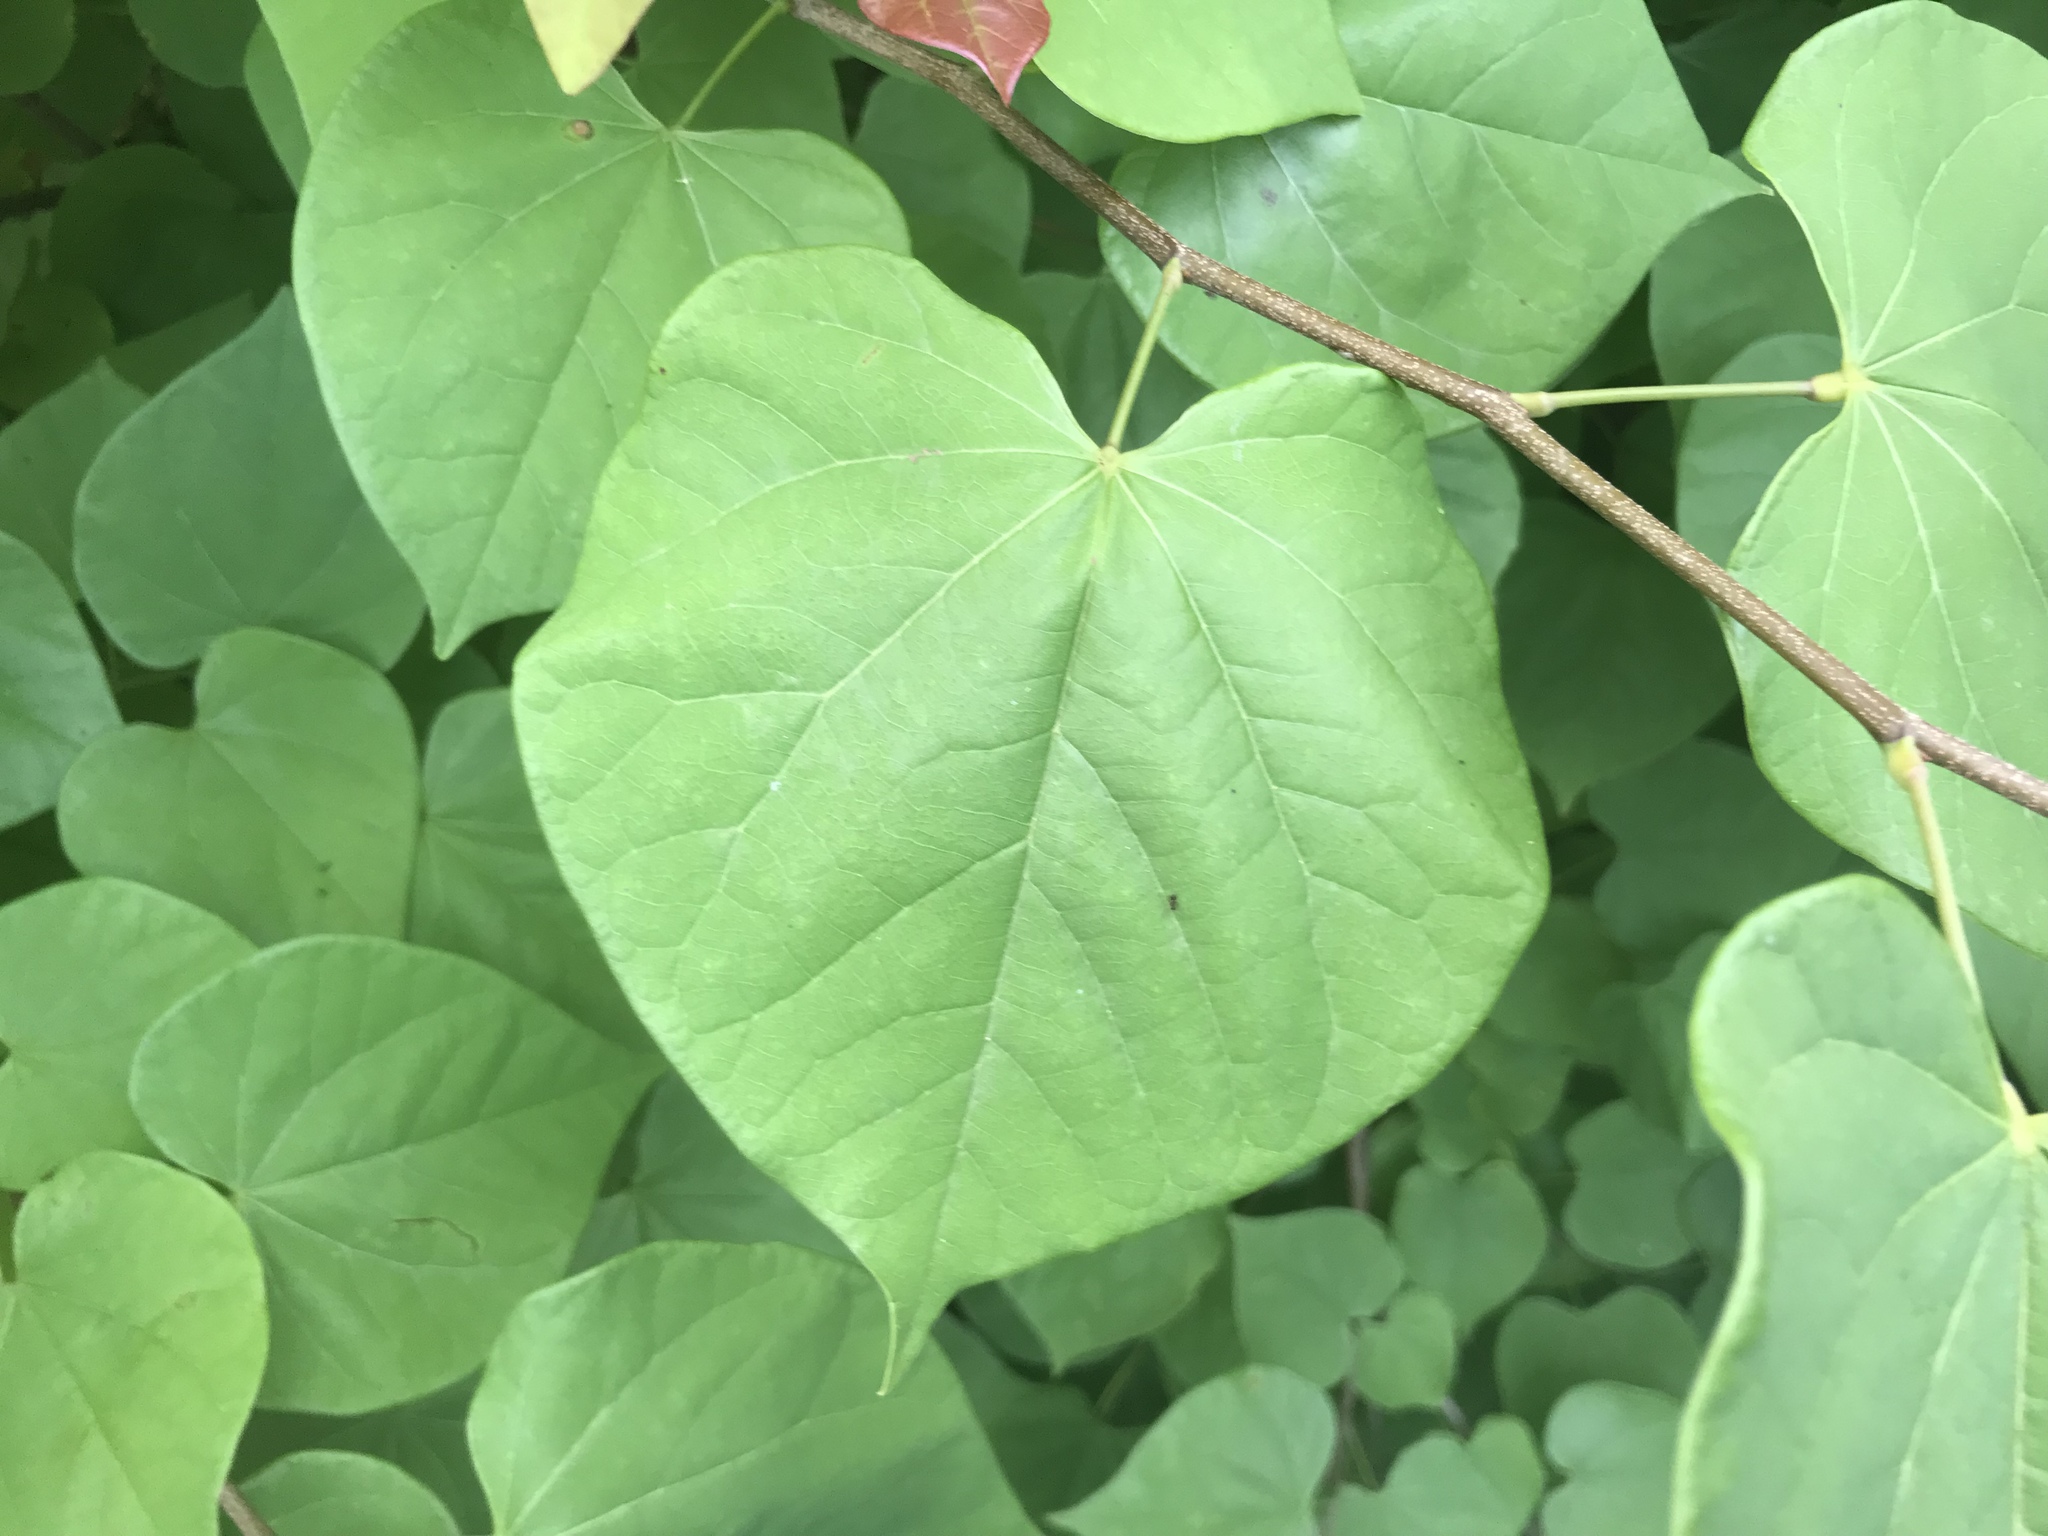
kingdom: Plantae
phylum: Tracheophyta
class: Magnoliopsida
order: Fabales
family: Fabaceae
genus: Cercis
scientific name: Cercis canadensis
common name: Eastern redbud
